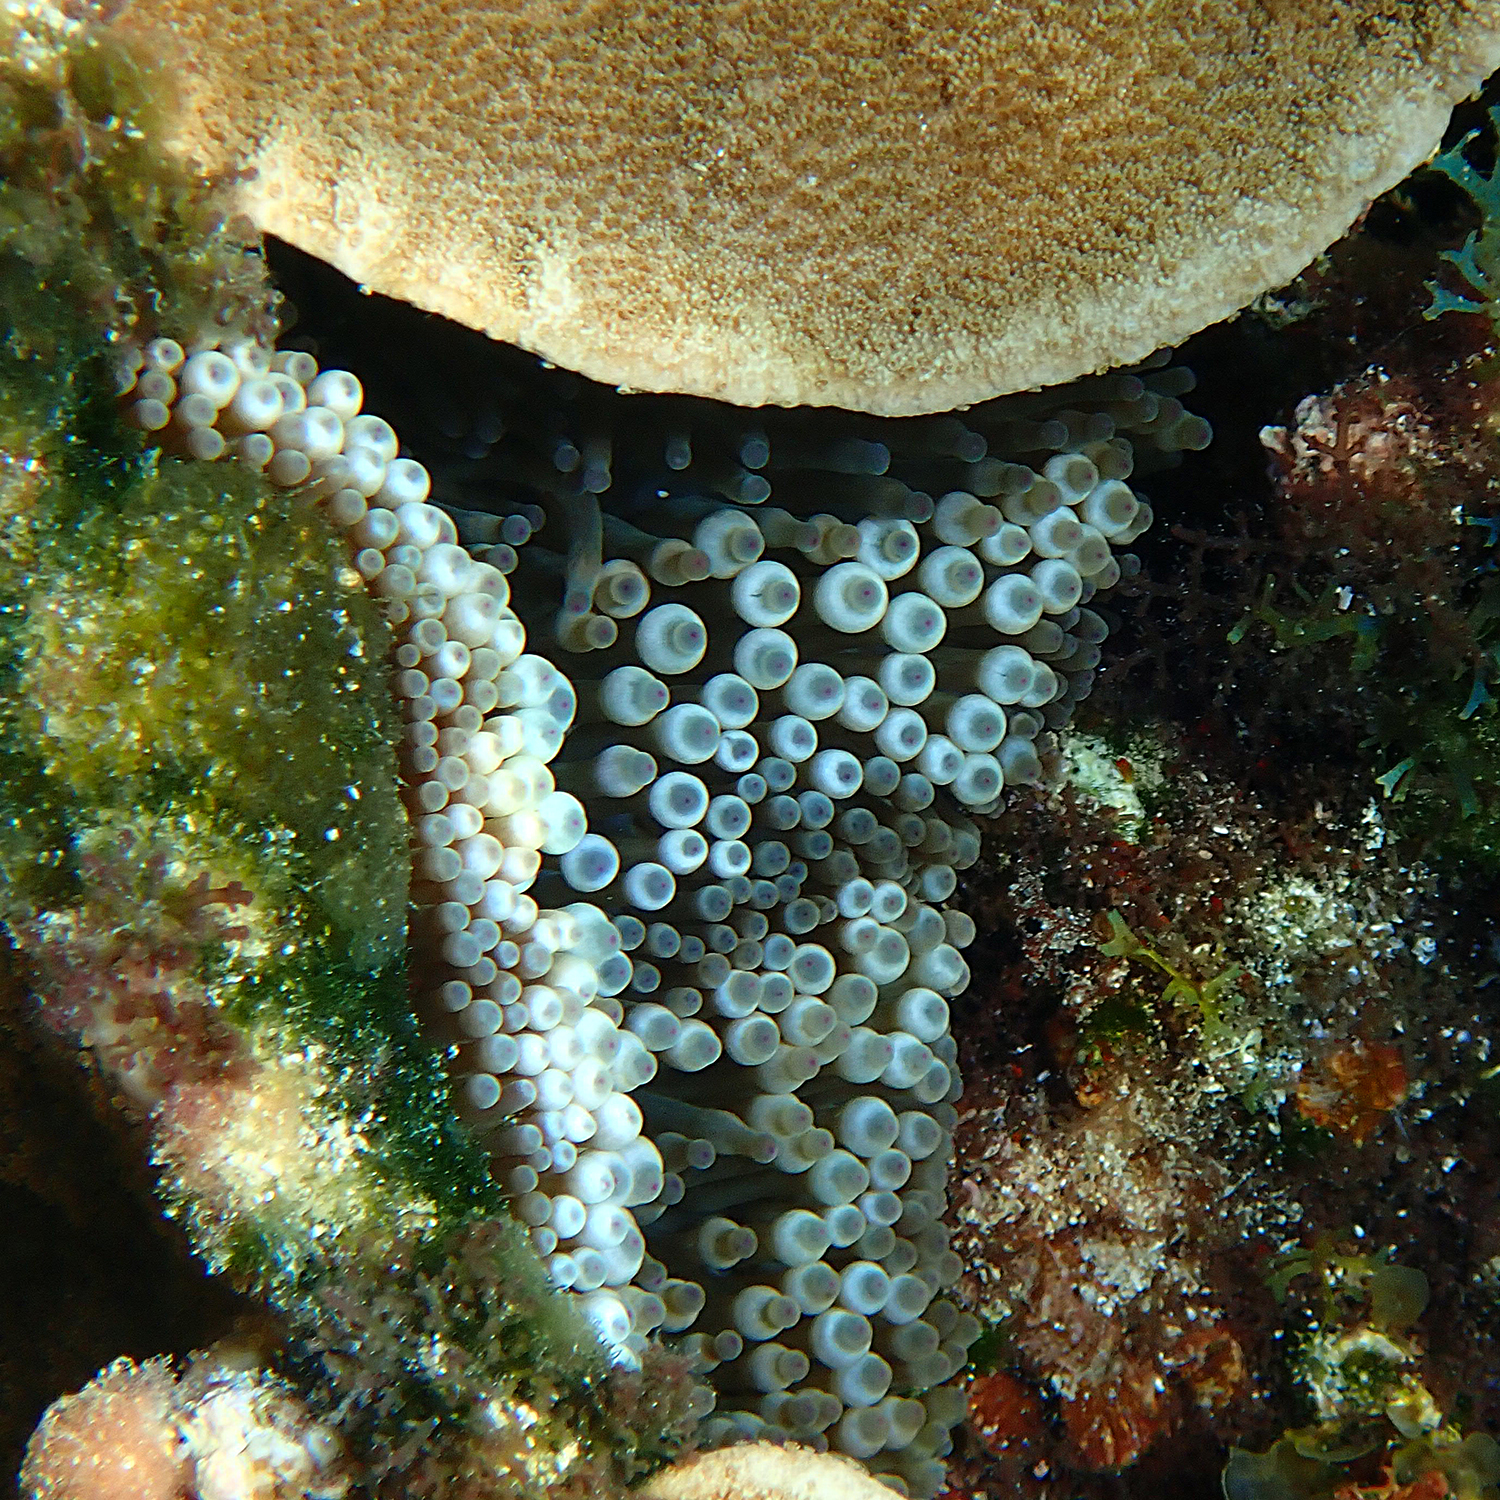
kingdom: Animalia
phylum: Cnidaria
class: Anthozoa
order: Actiniaria
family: Actiniidae
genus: Entacmaea
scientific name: Entacmaea quadricolor
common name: Bulb tentacle sea anemone
